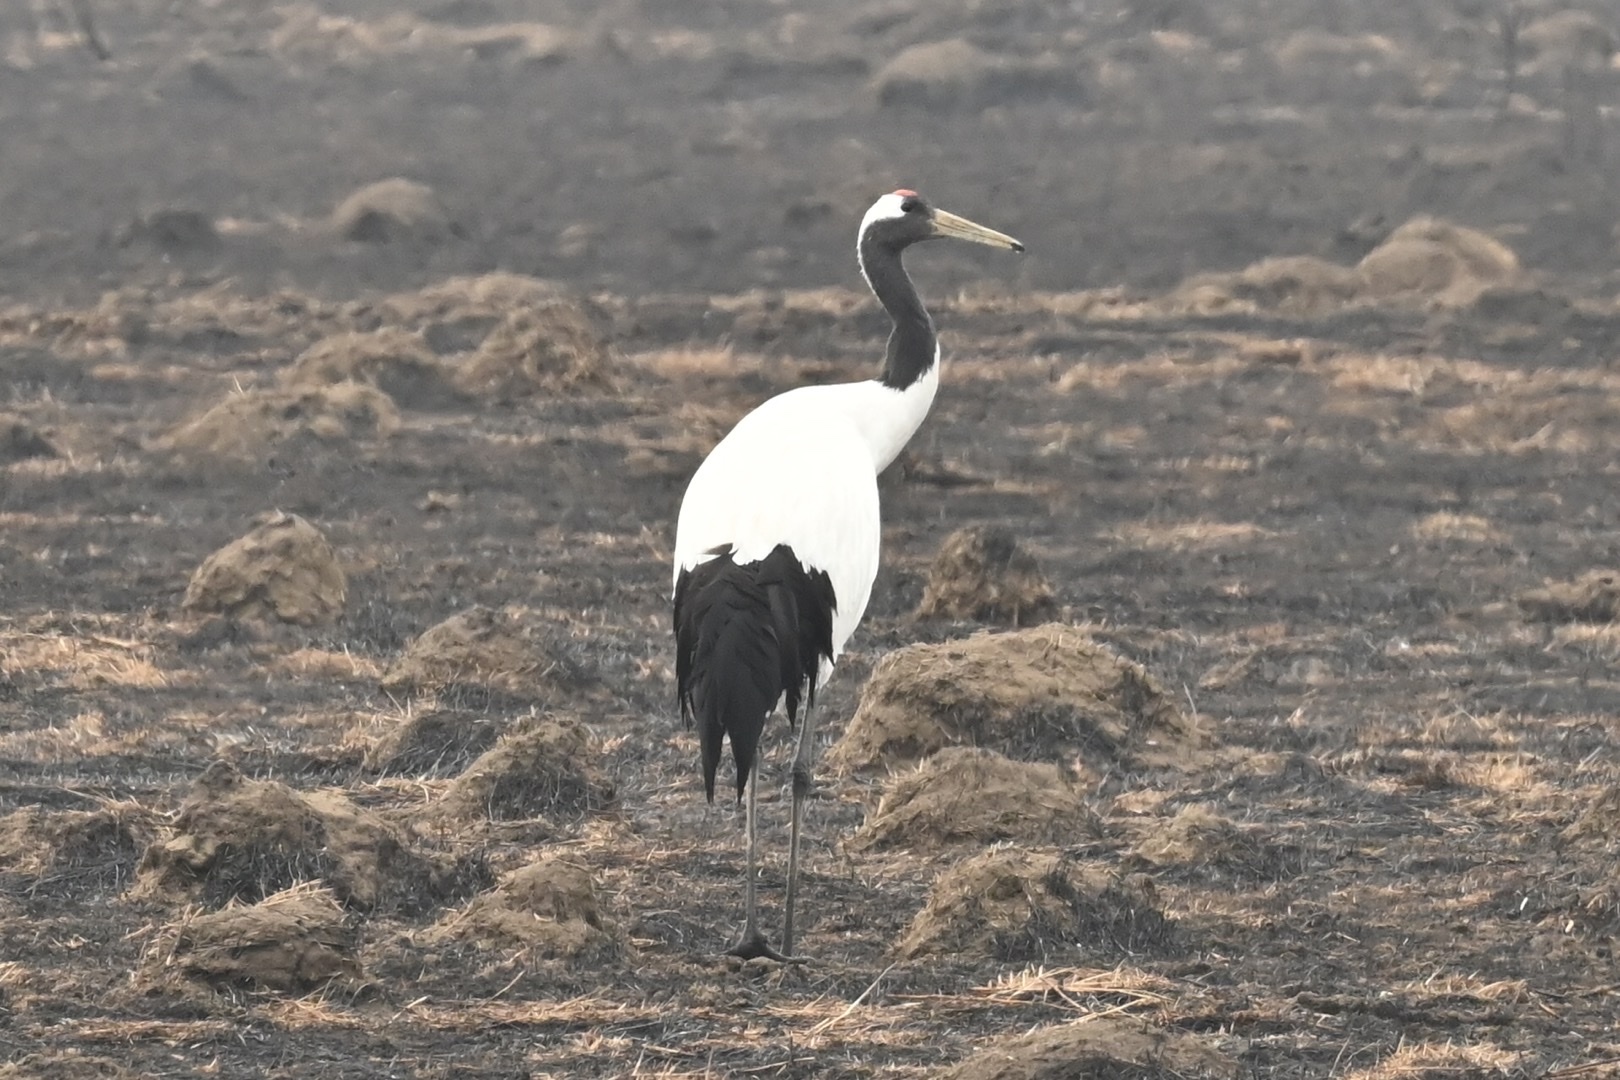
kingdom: Animalia
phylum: Chordata
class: Aves
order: Gruiformes
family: Gruidae
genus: Grus
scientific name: Grus japonensis
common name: Red-crowned crane
